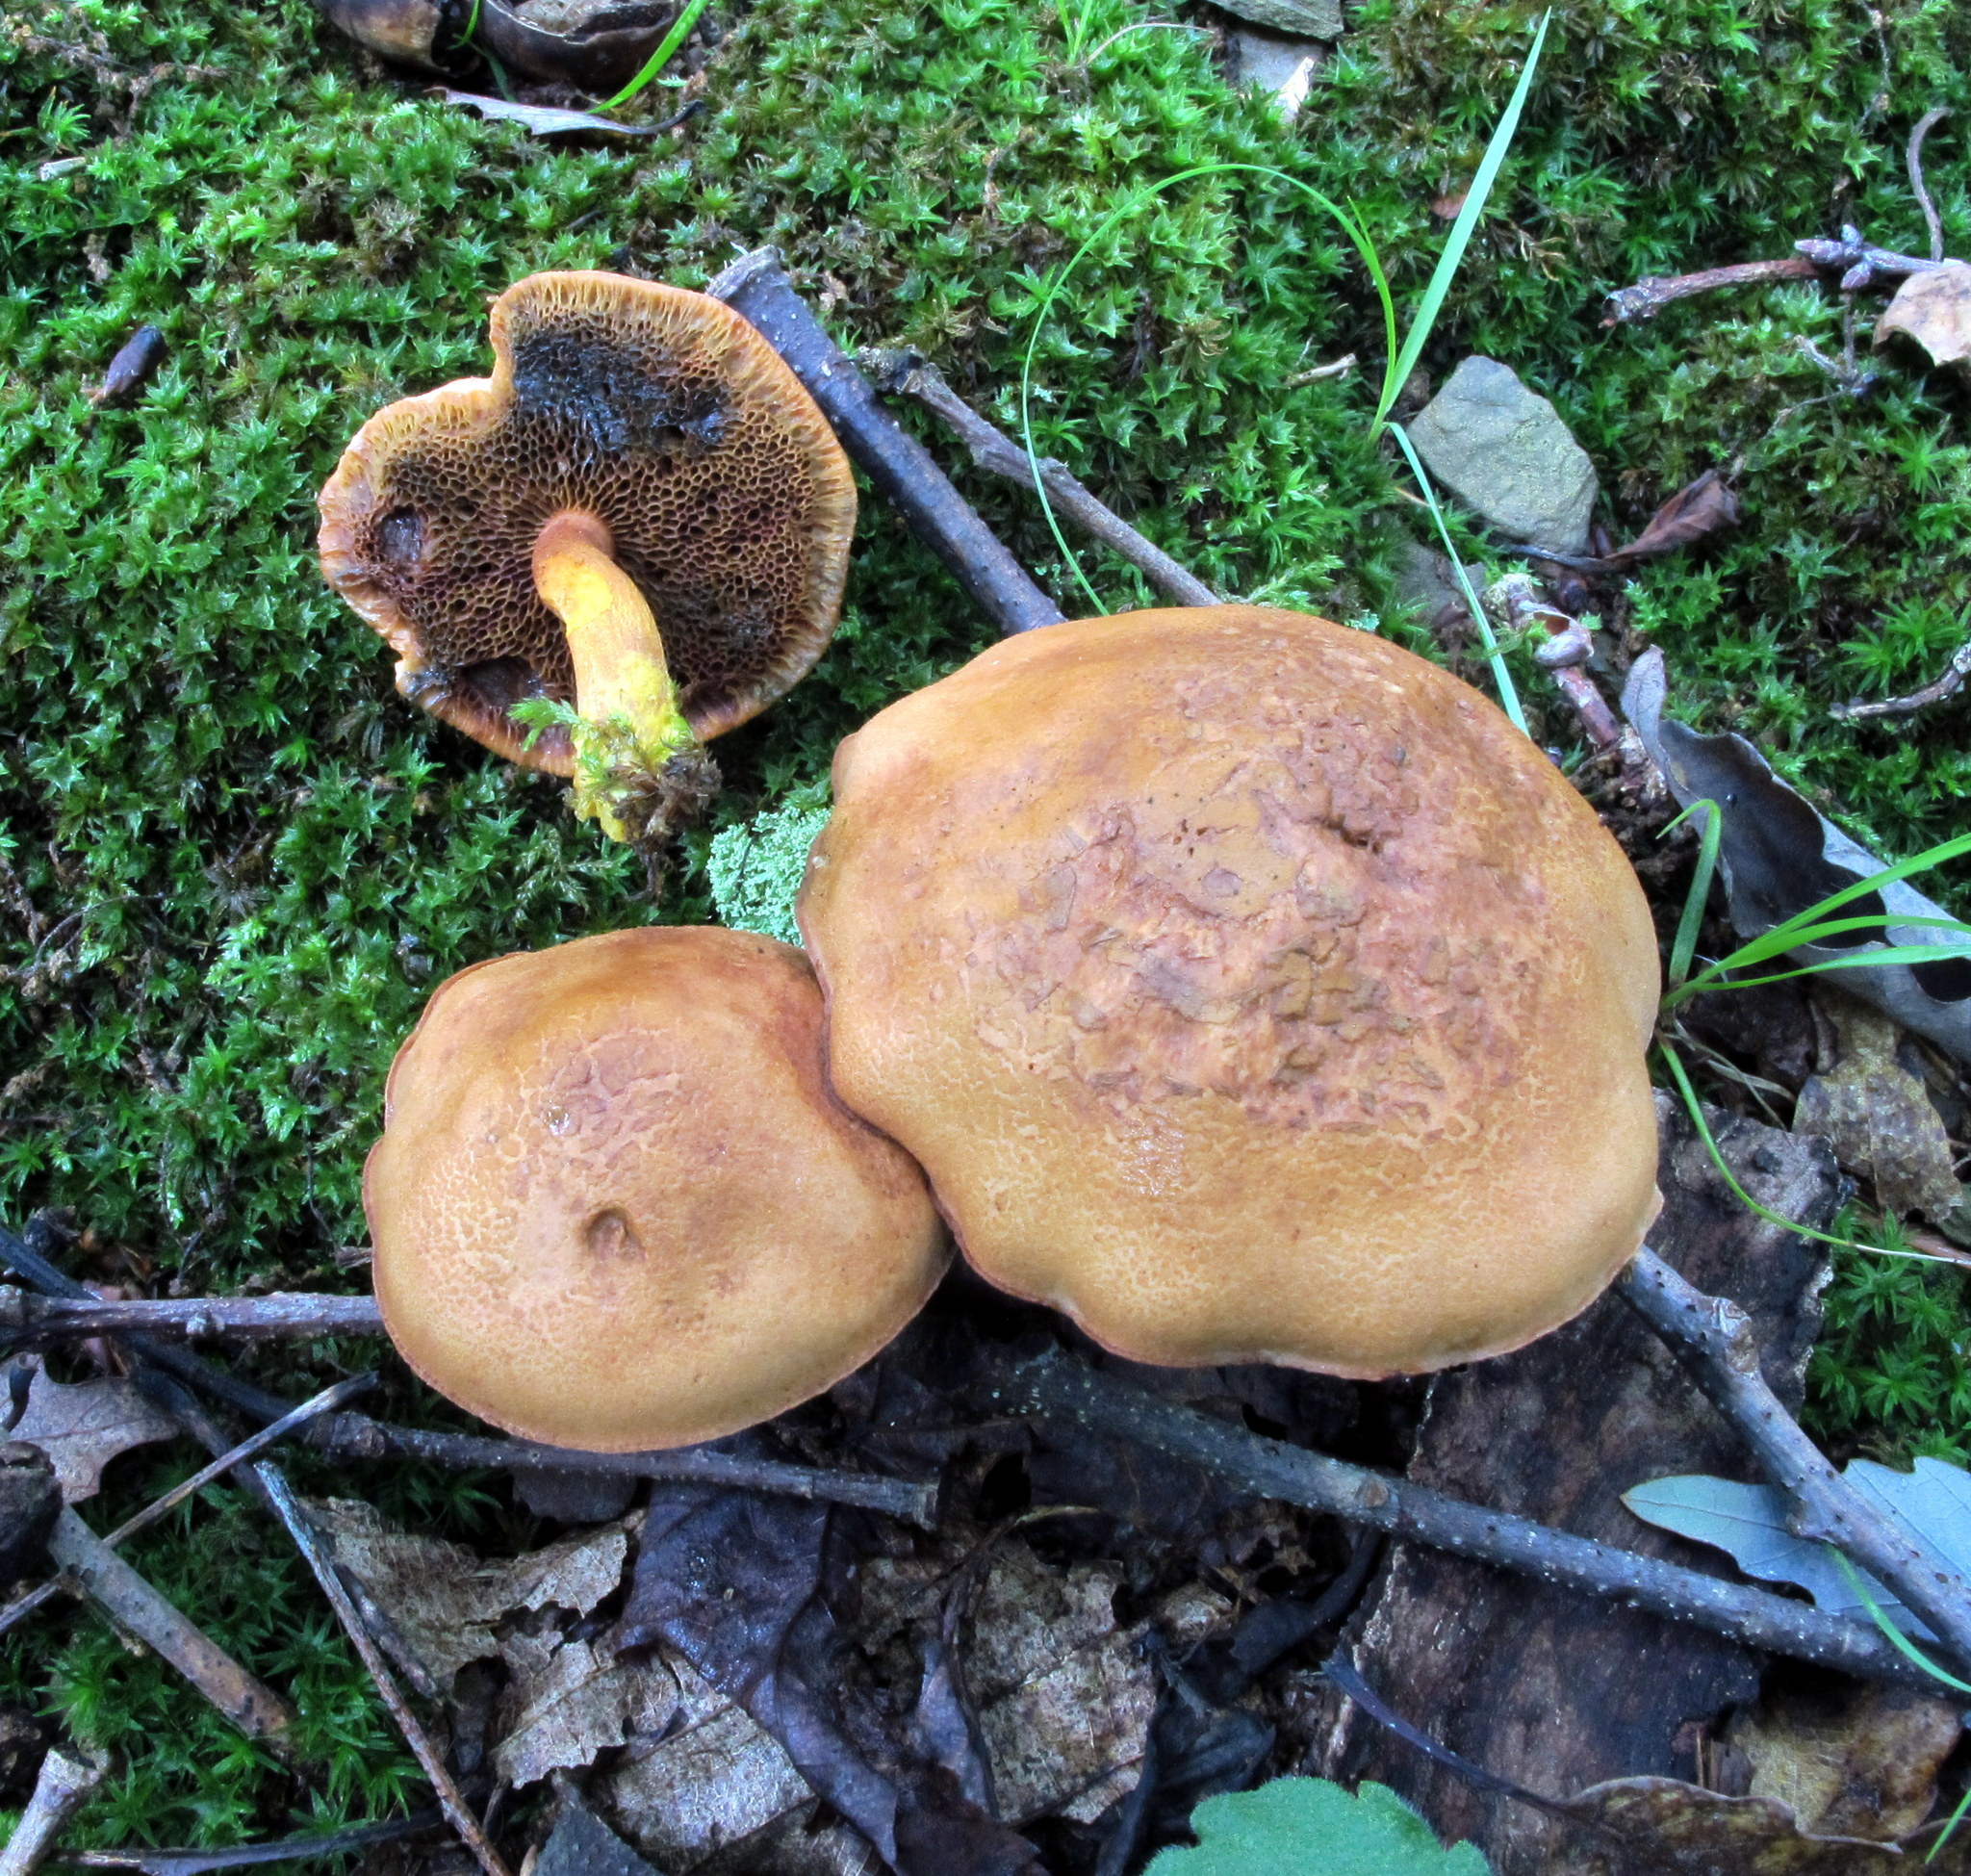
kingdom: Fungi
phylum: Basidiomycota
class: Agaricomycetes
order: Boletales
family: Boletaceae
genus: Chalciporus
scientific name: Chalciporus piperatoides
